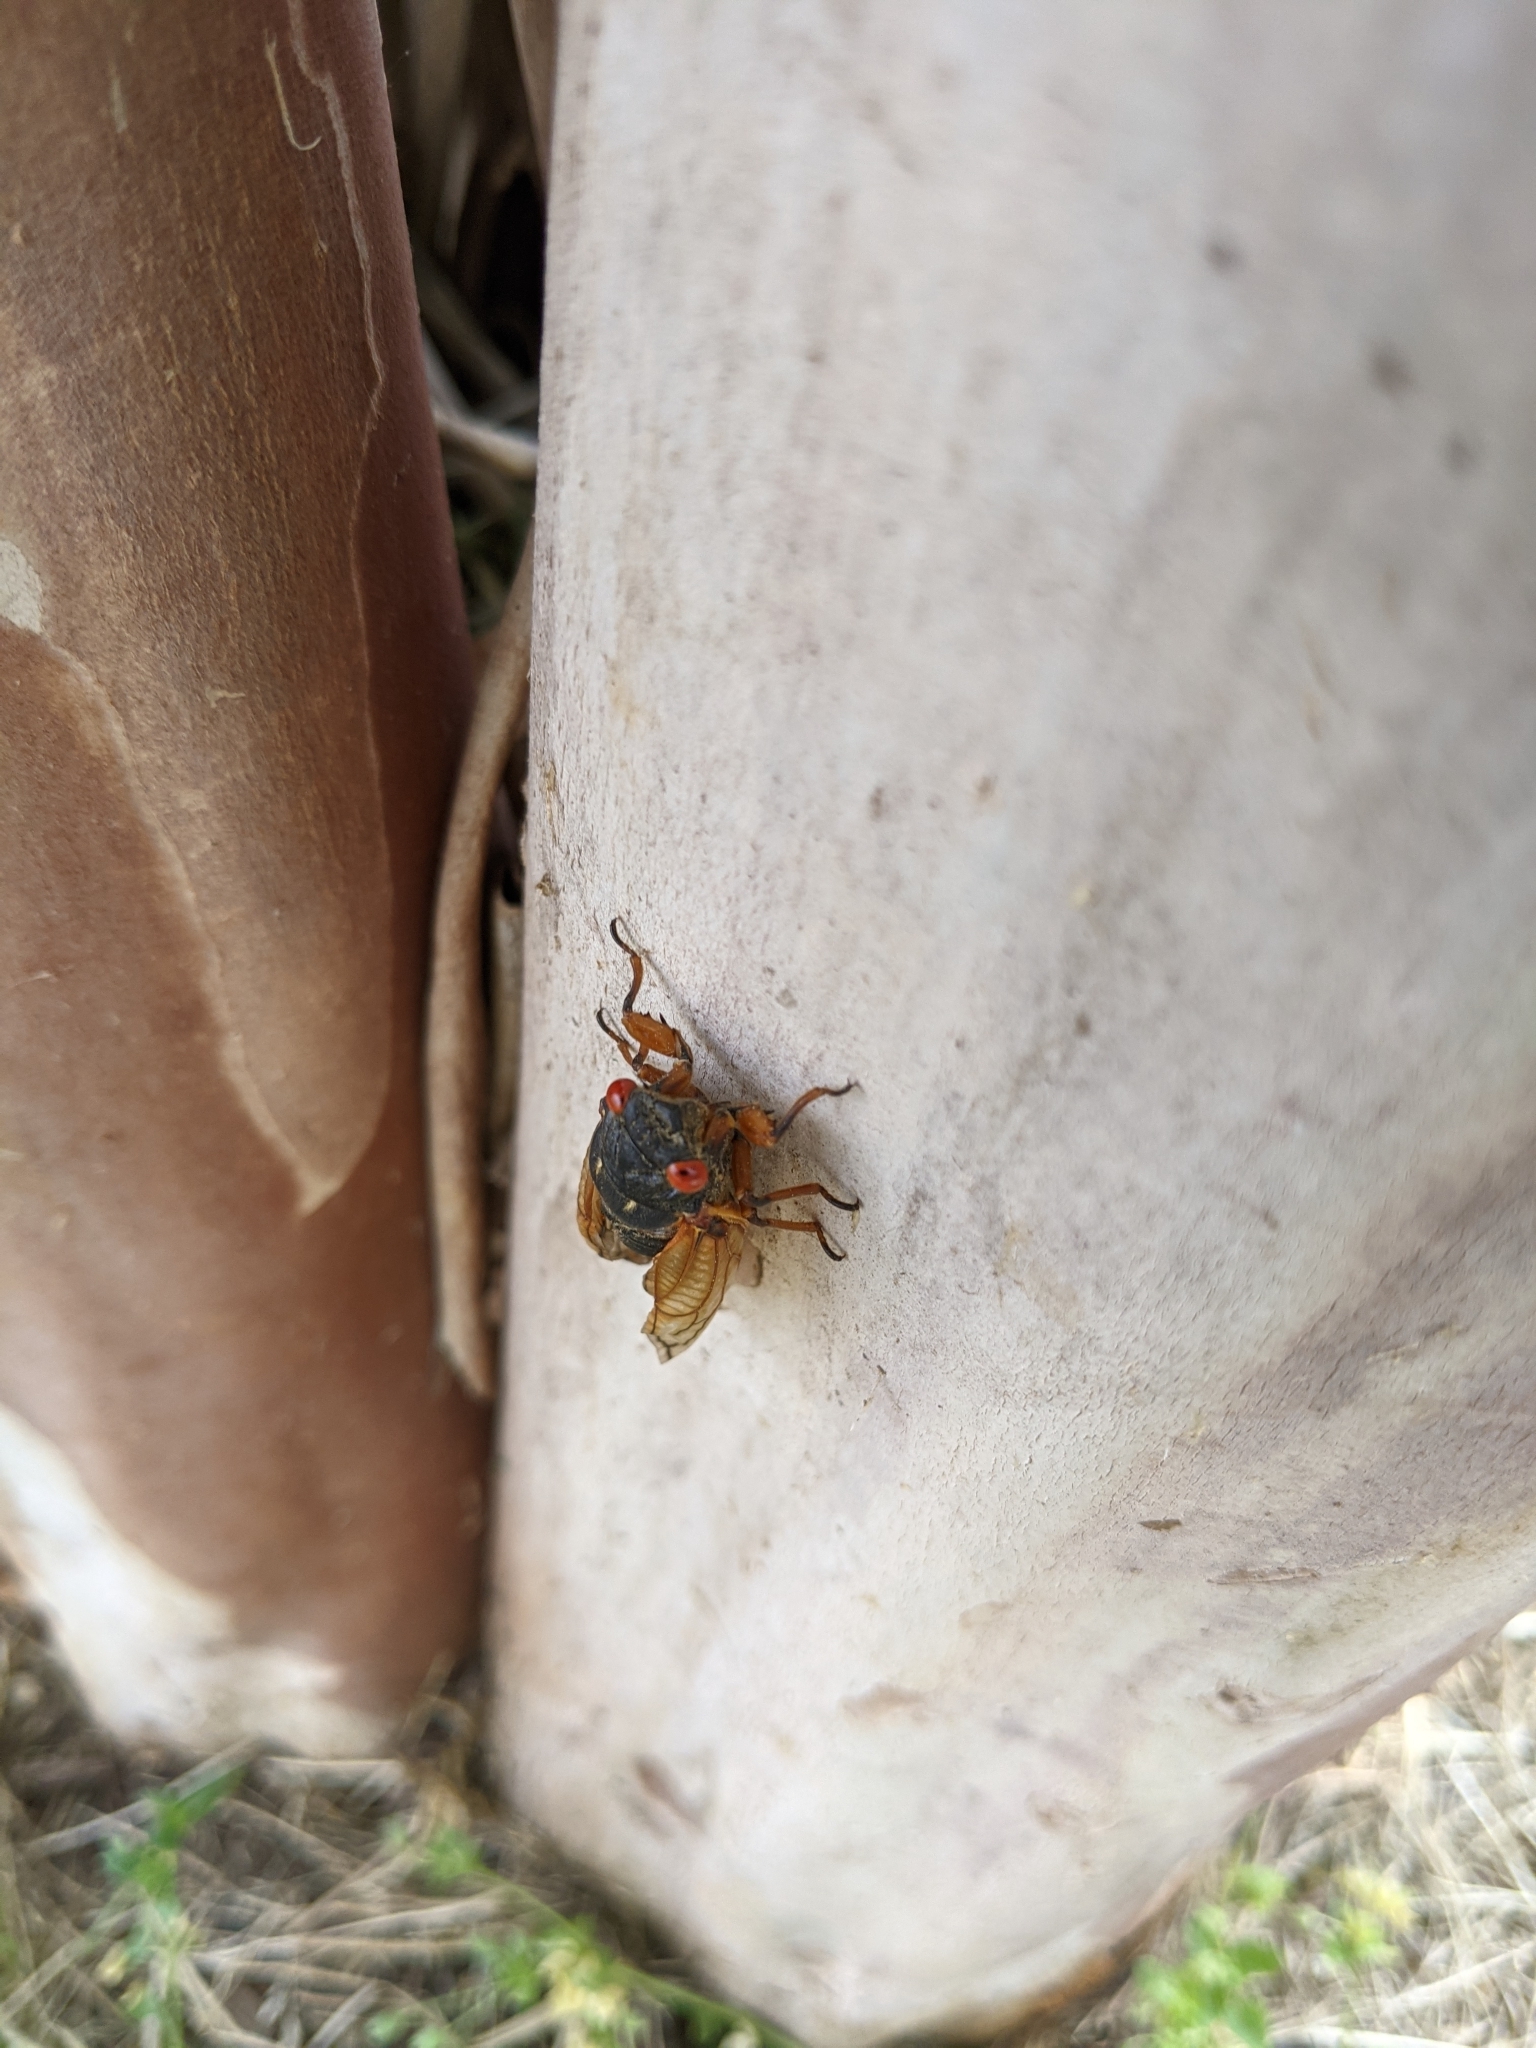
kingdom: Animalia
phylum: Arthropoda
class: Insecta
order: Hemiptera
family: Cicadidae
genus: Magicicada
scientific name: Magicicada
